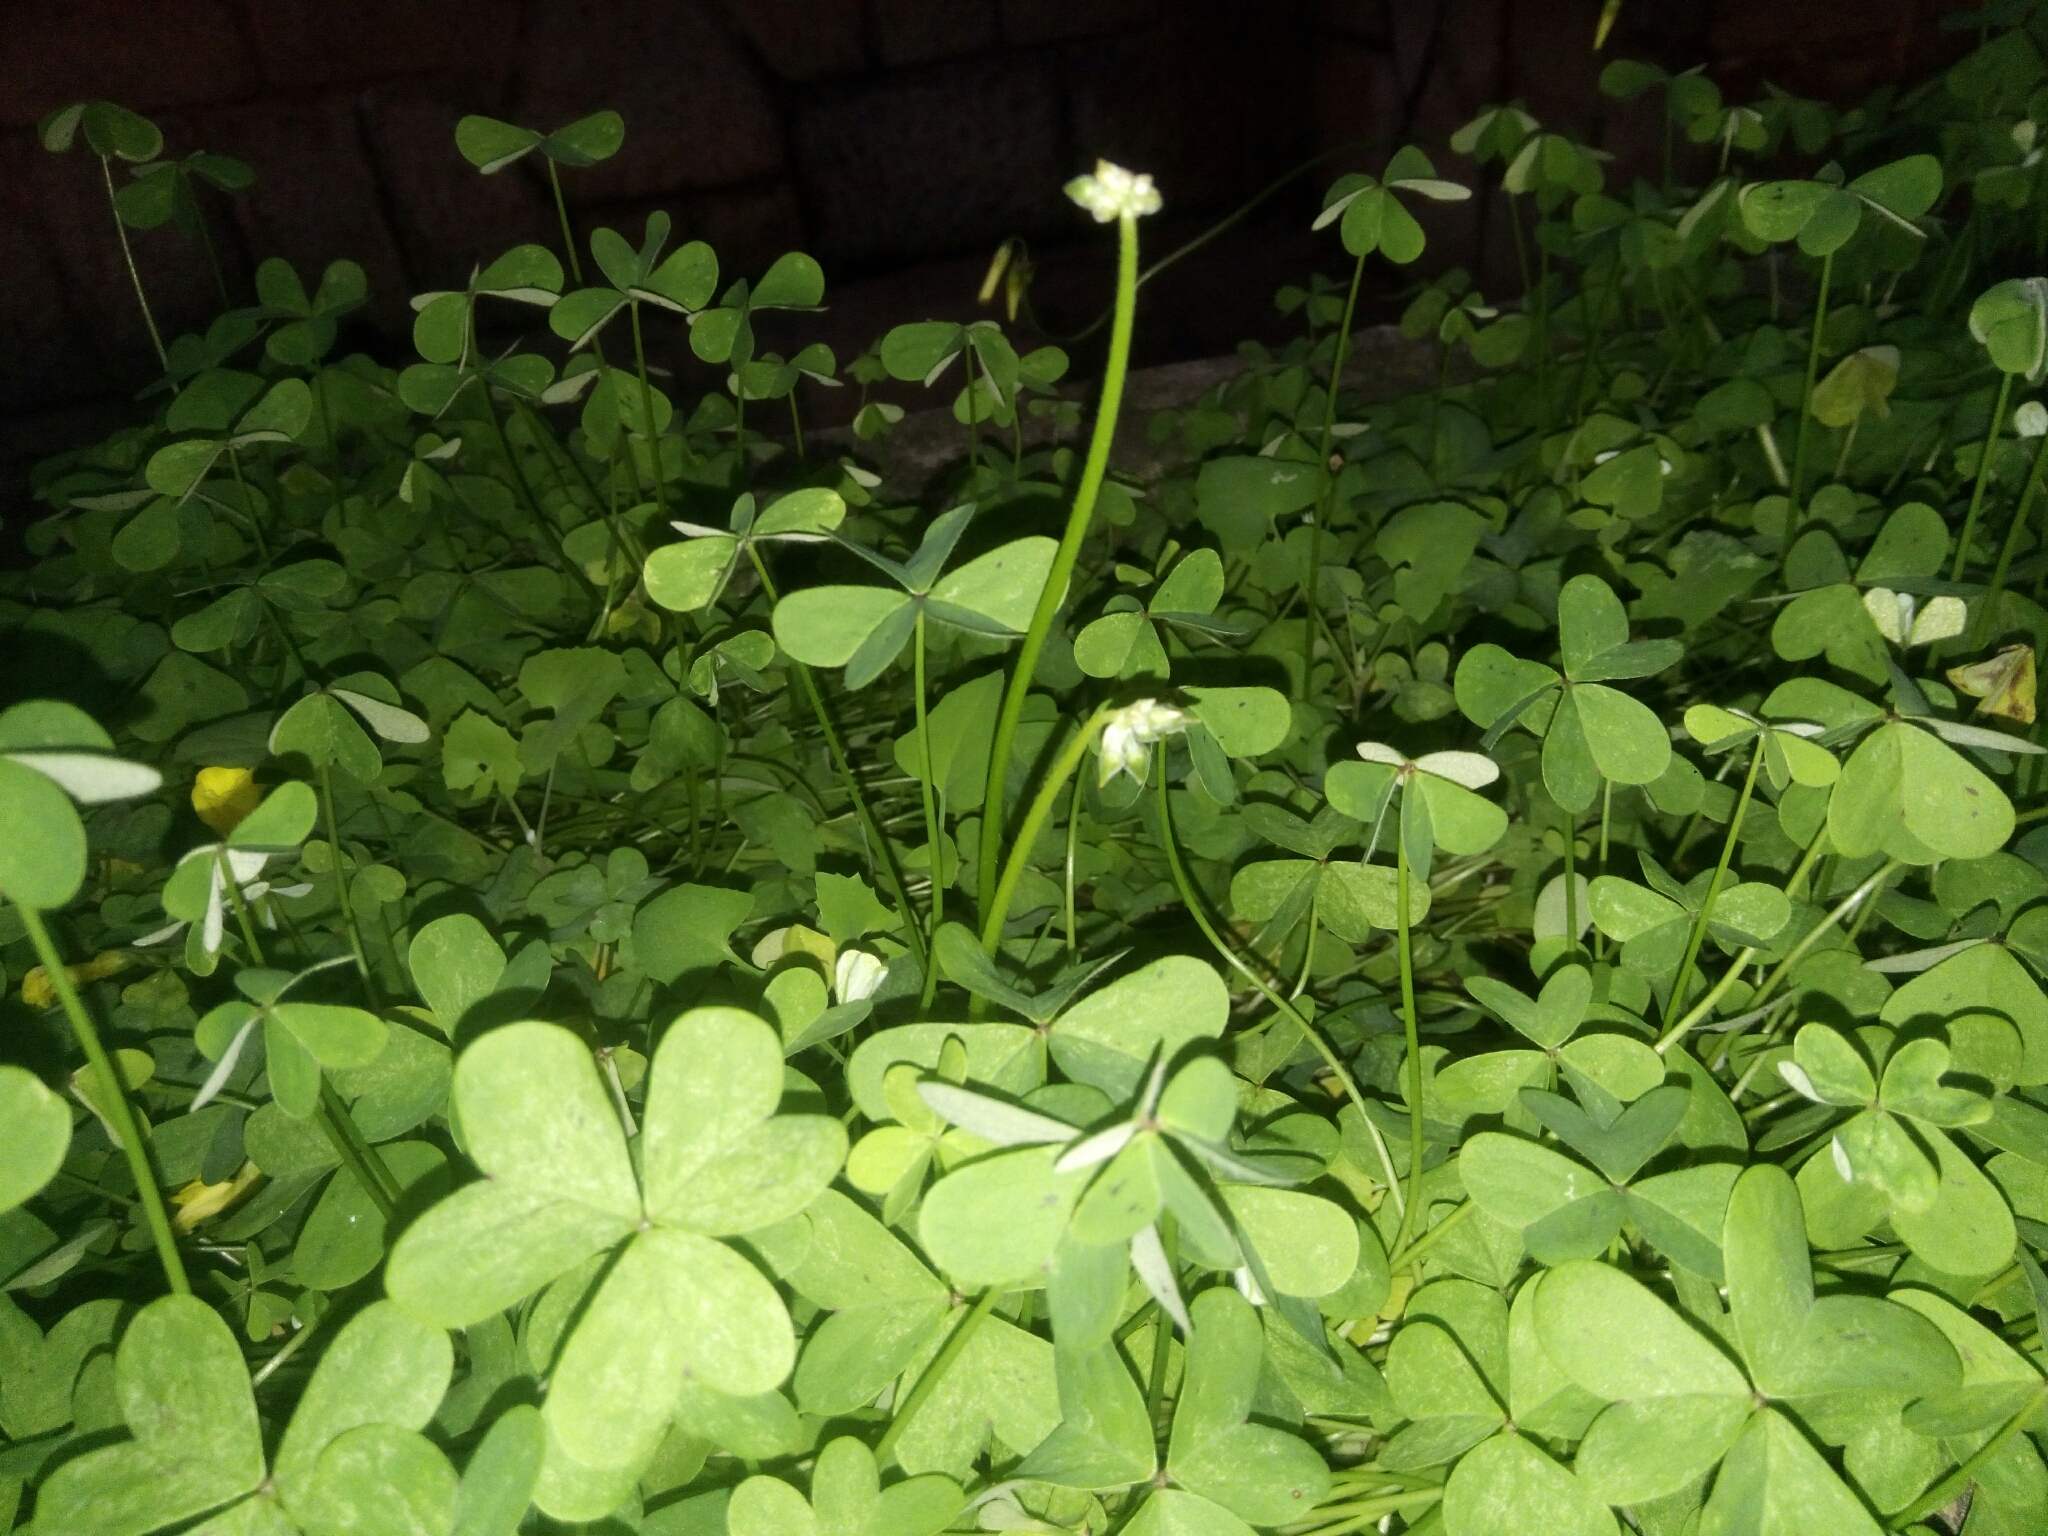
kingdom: Plantae
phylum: Tracheophyta
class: Magnoliopsida
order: Oxalidales
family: Oxalidaceae
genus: Oxalis
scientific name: Oxalis pes-caprae
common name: Bermuda-buttercup
